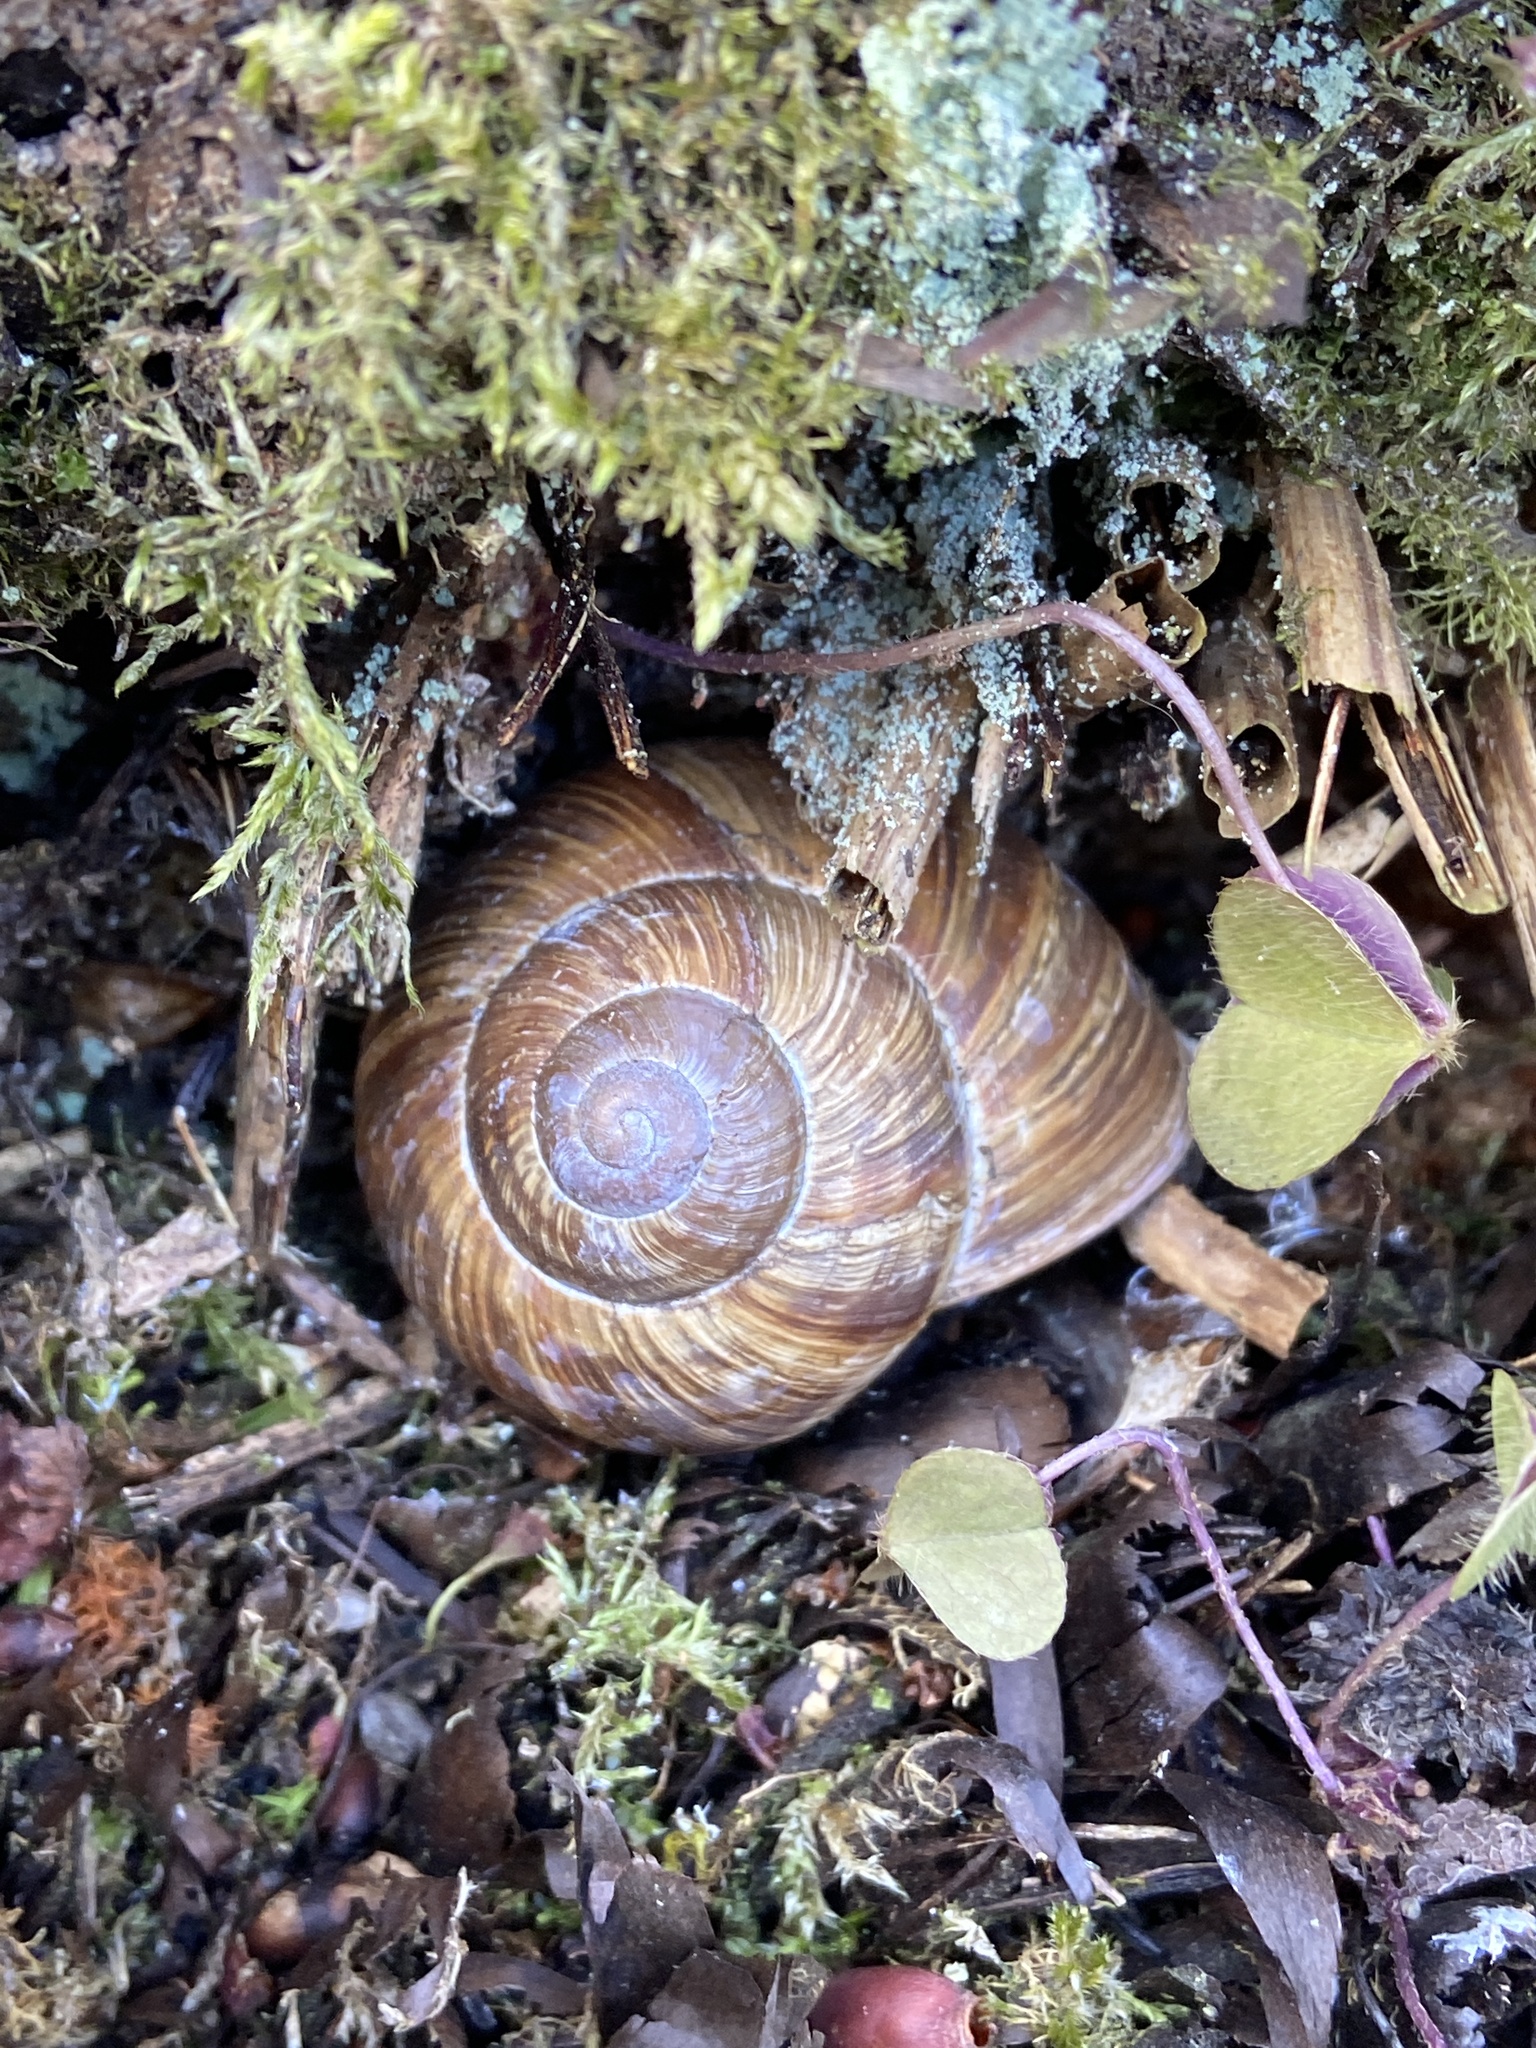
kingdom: Animalia
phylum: Mollusca
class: Gastropoda
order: Stylommatophora
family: Helicidae
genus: Helix
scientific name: Helix pomatia
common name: Roman snail
